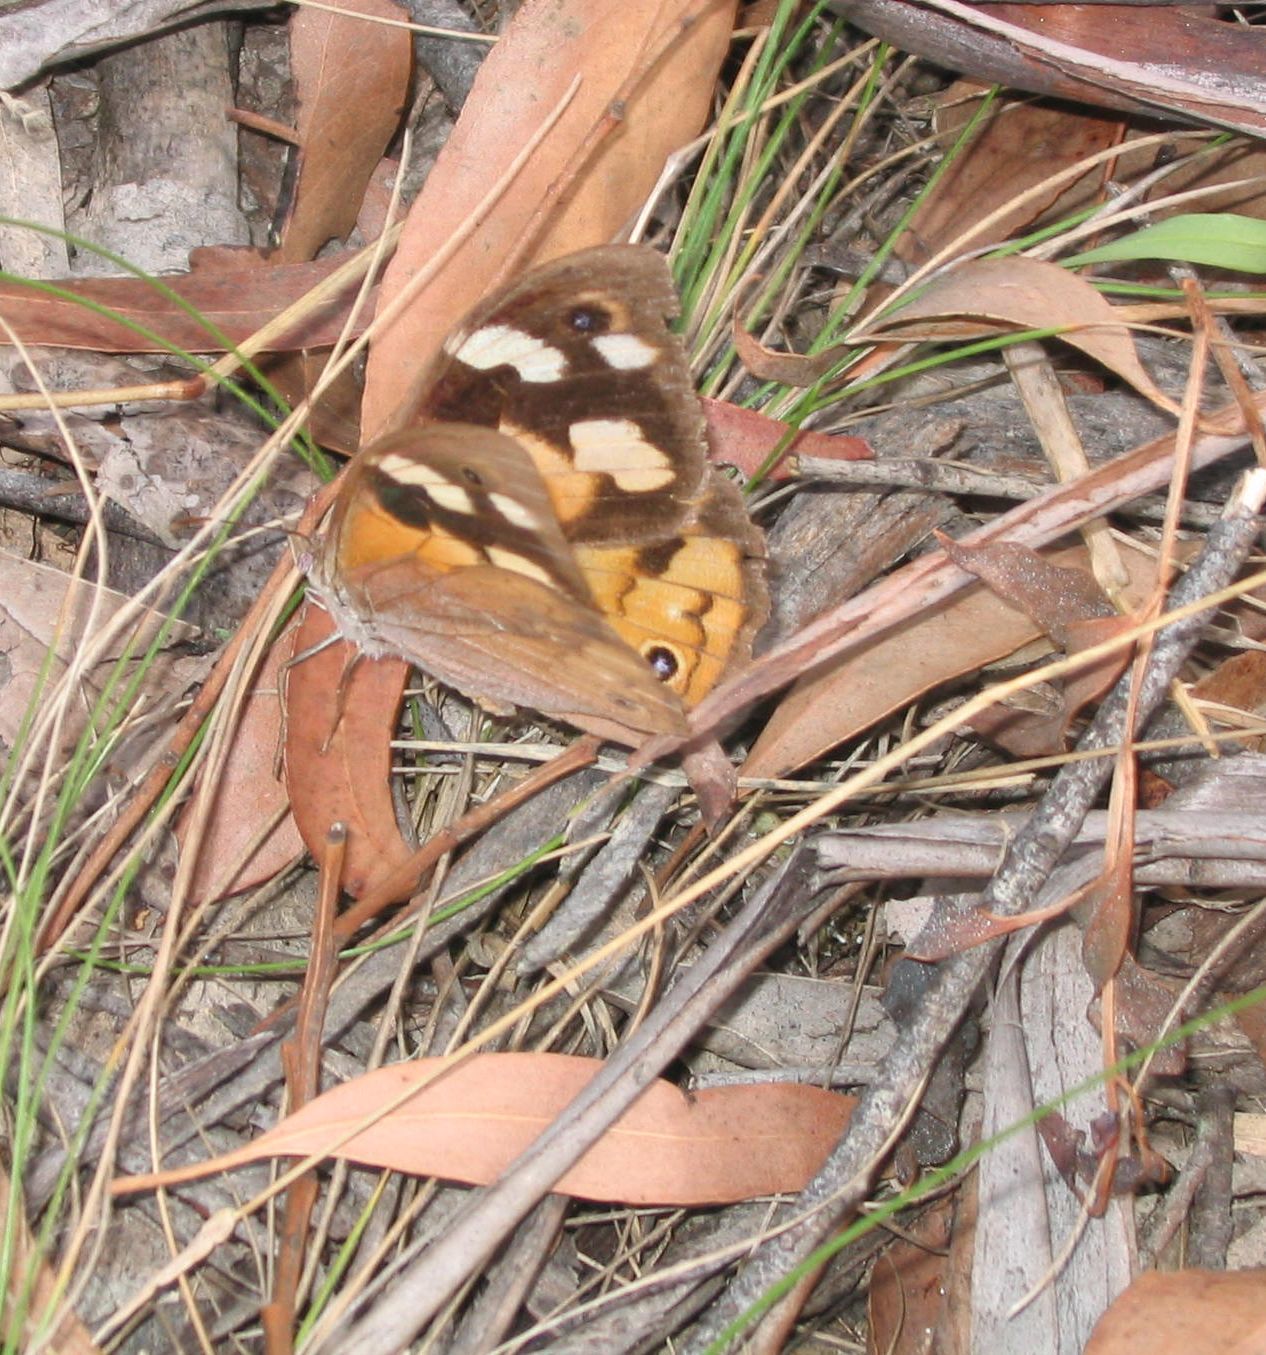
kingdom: Animalia
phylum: Arthropoda
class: Insecta
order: Lepidoptera
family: Nymphalidae
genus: Heteronympha
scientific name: Heteronympha merope
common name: Common brown
